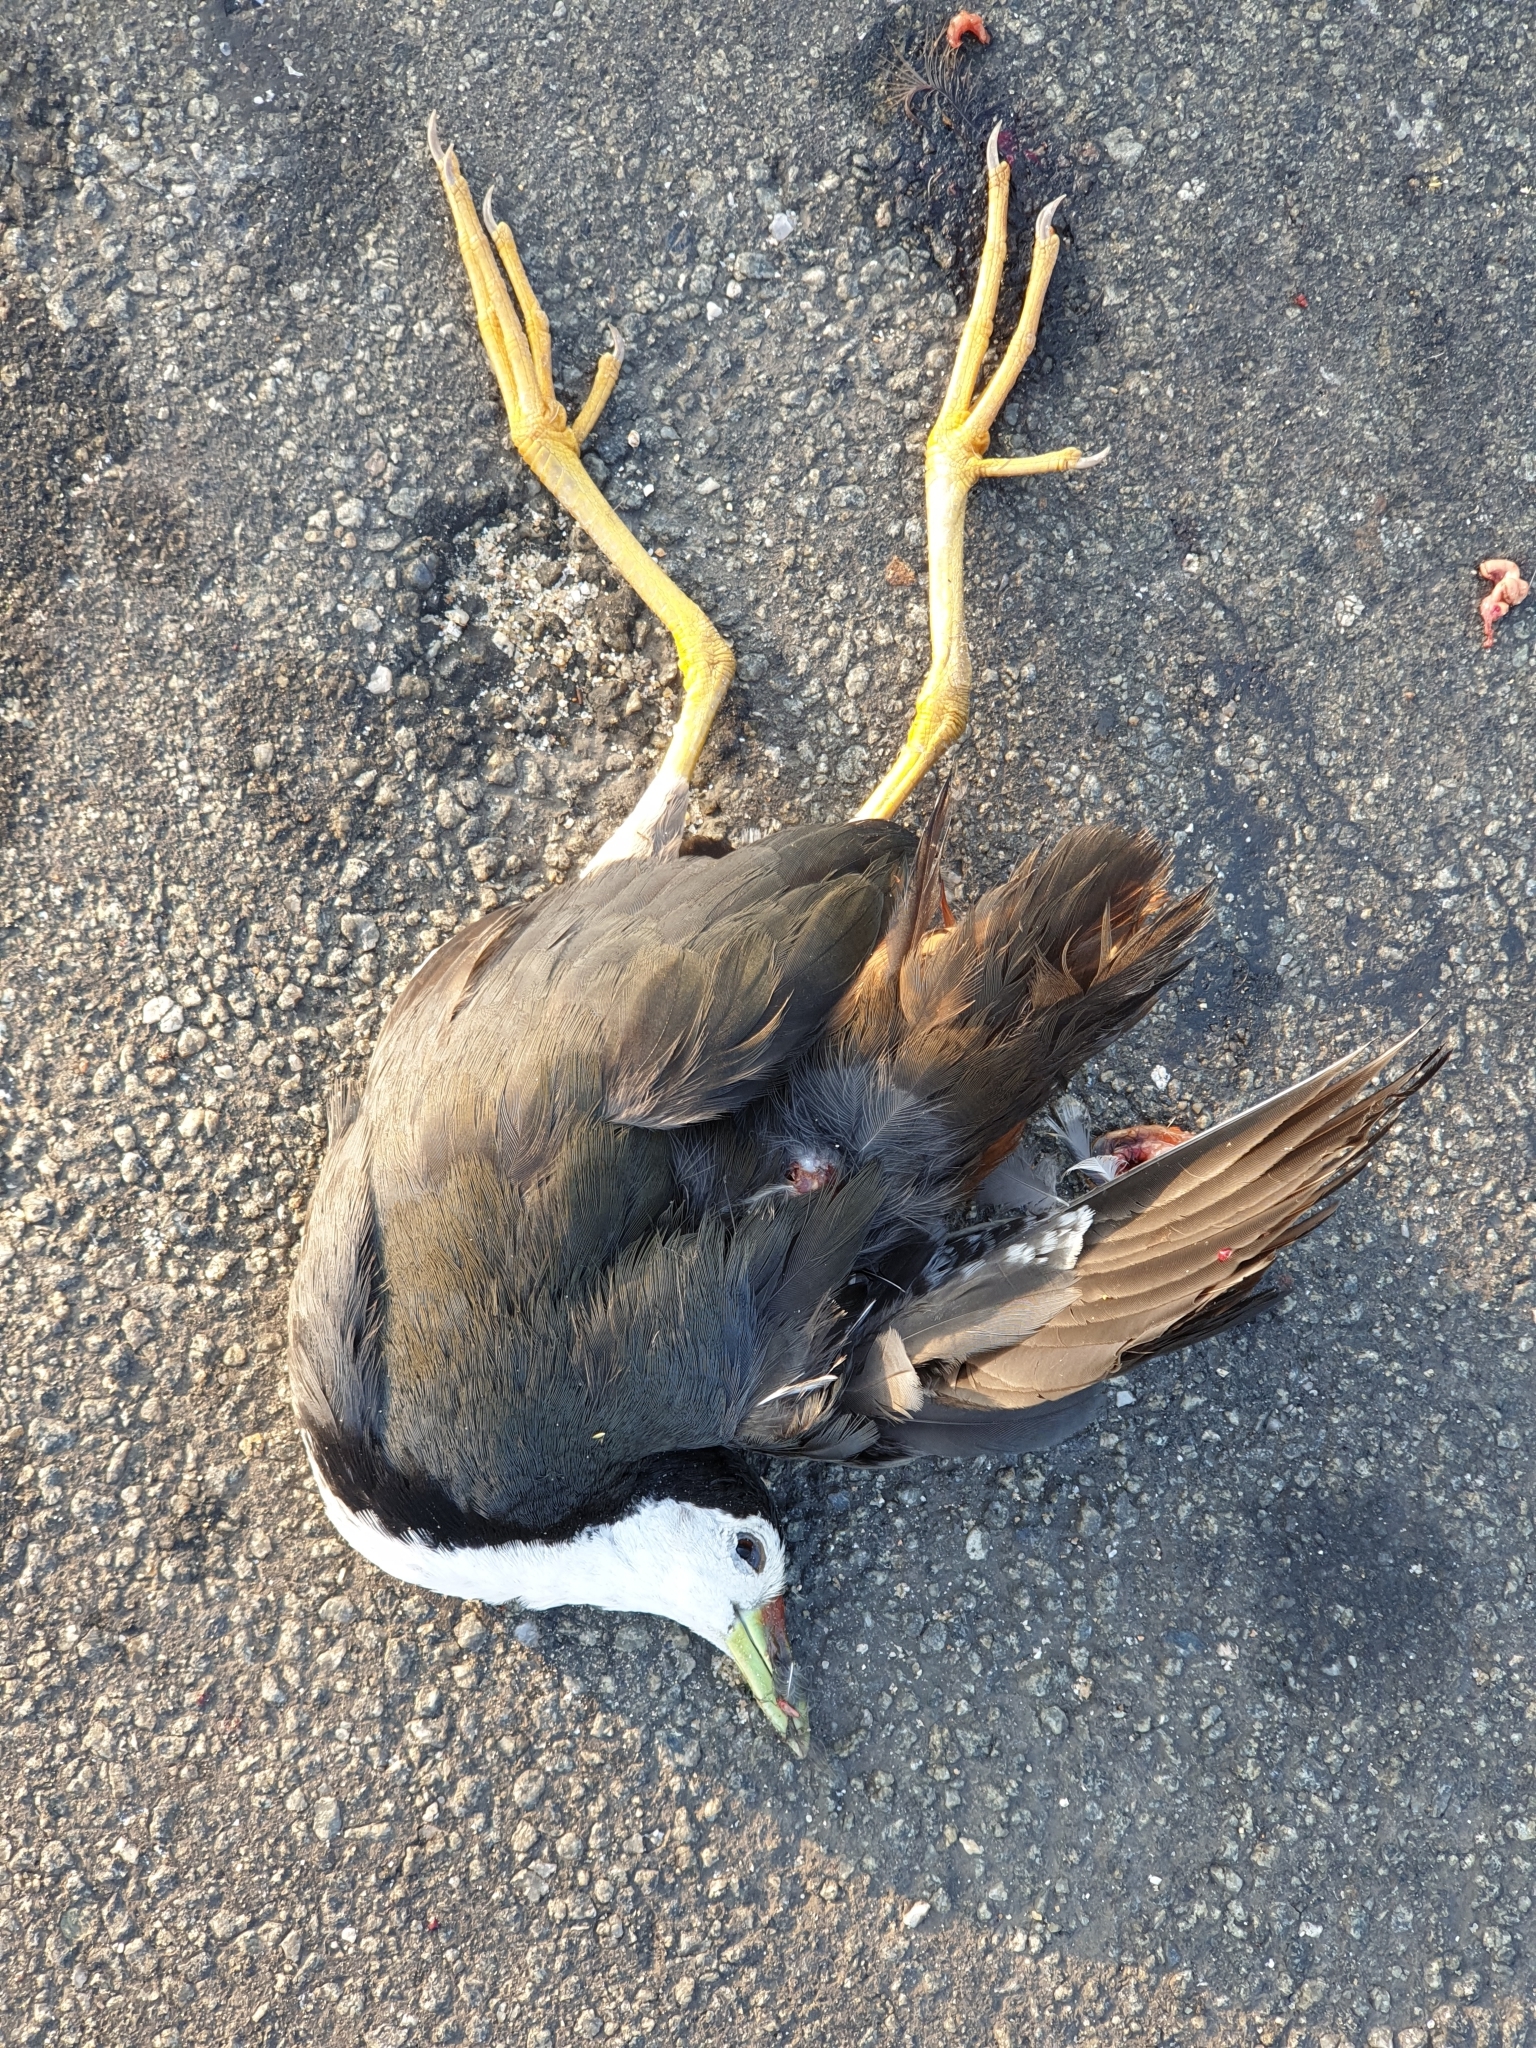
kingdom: Animalia
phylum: Chordata
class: Aves
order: Gruiformes
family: Rallidae
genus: Amaurornis
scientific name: Amaurornis phoenicurus
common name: White-breasted waterhen
